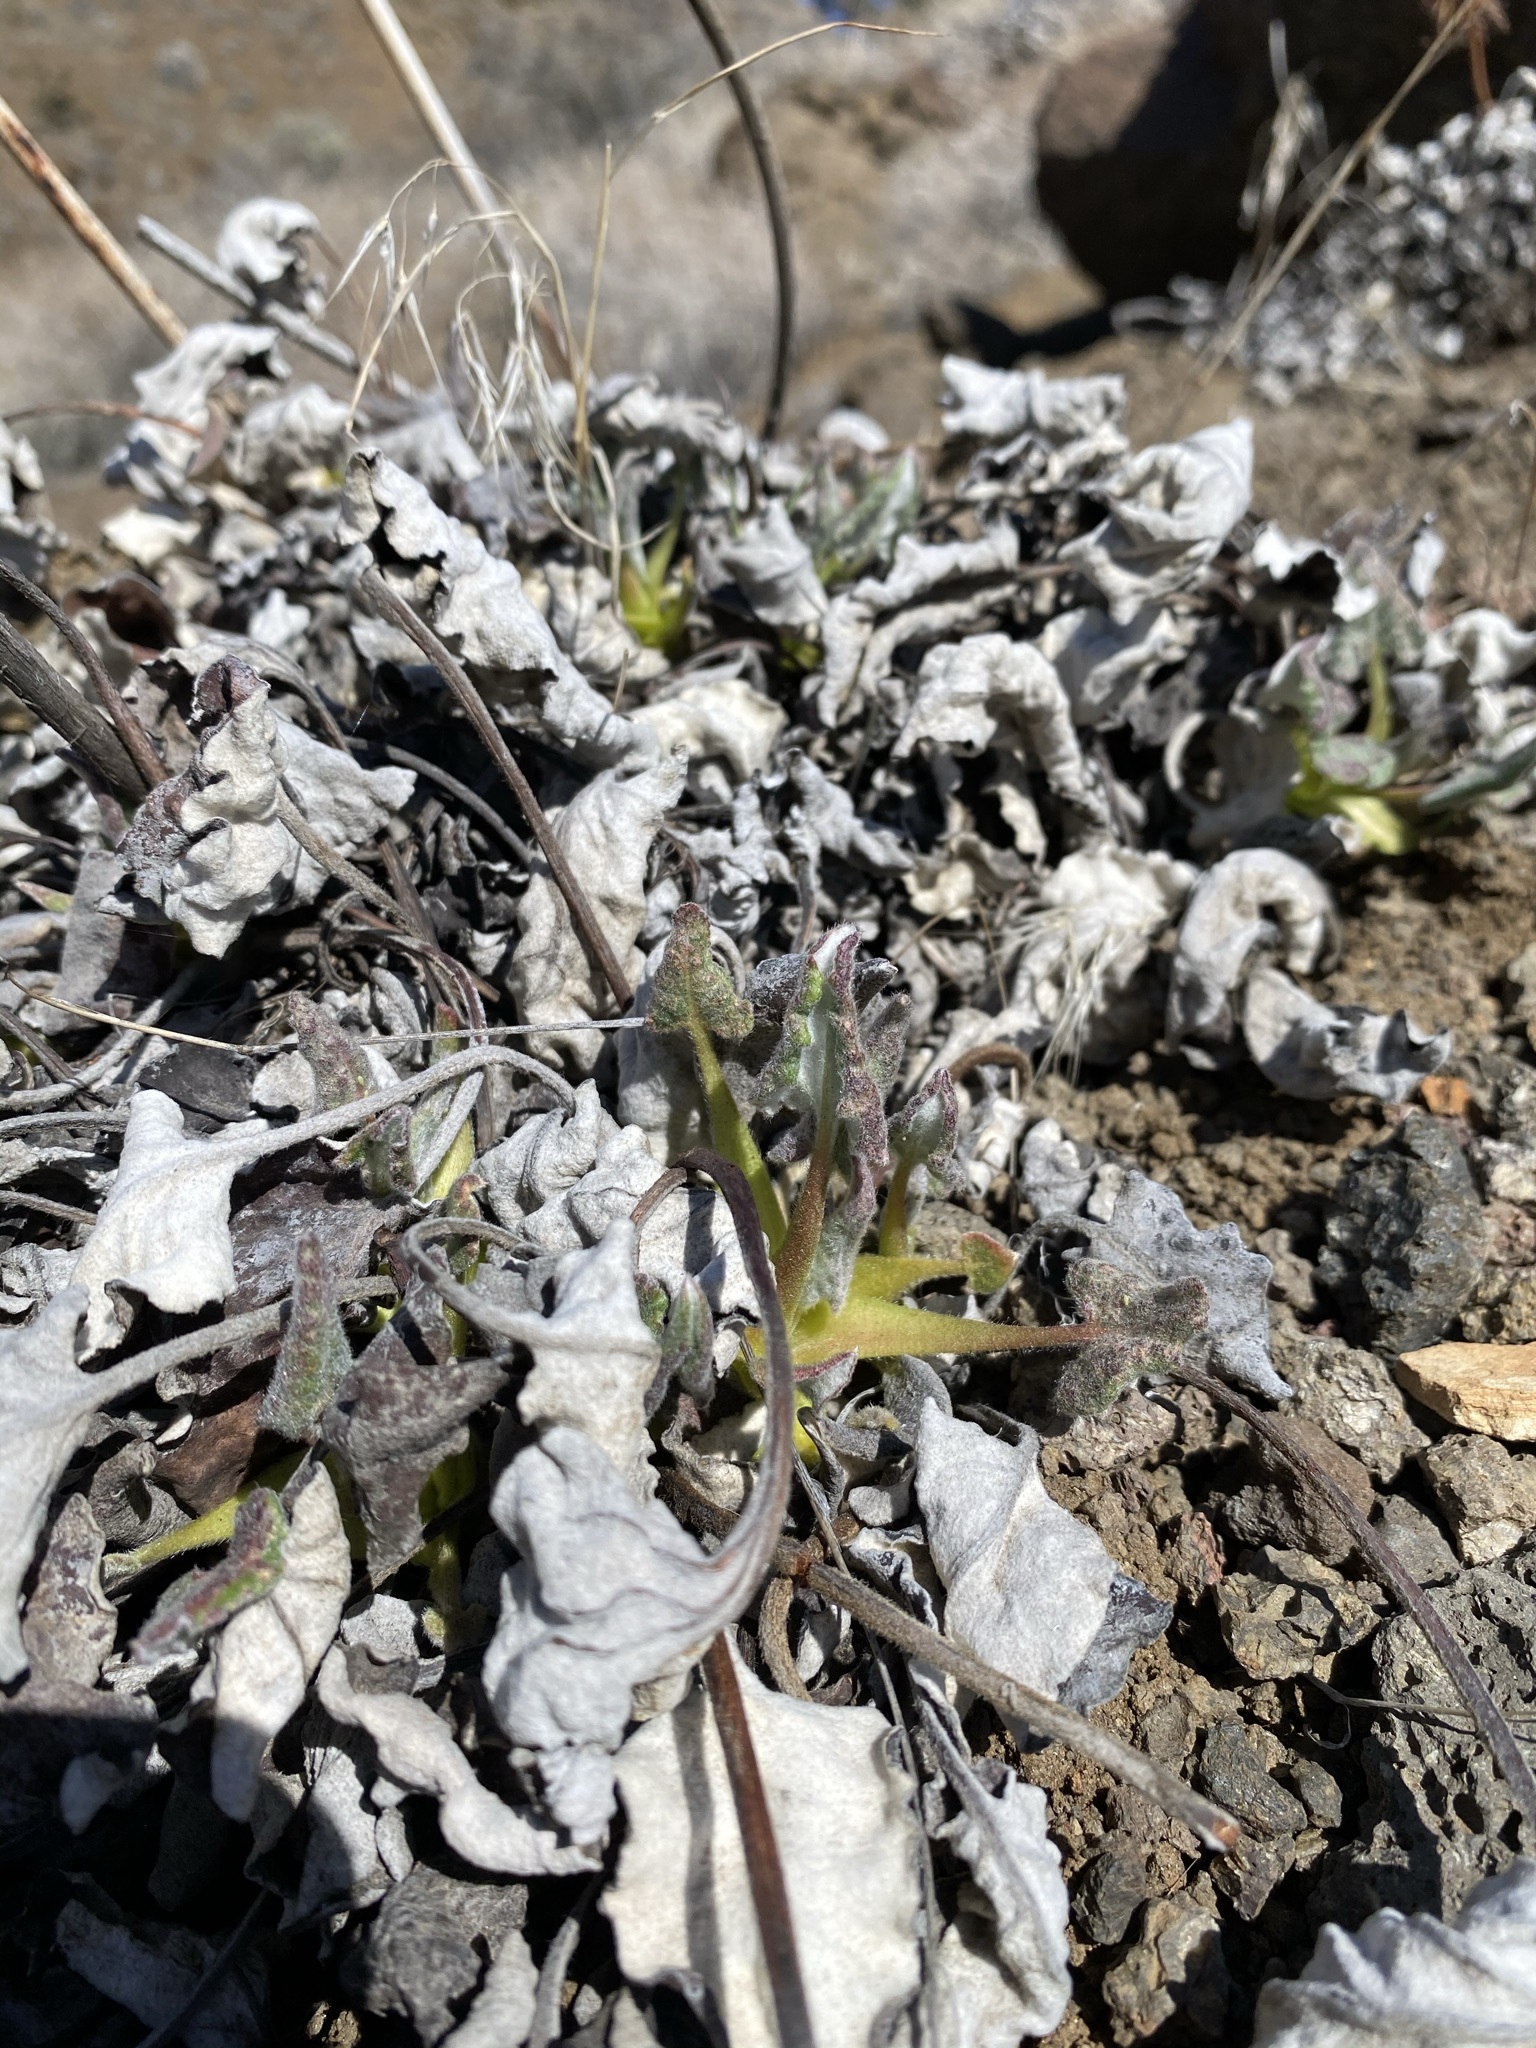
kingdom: Plantae
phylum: Tracheophyta
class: Magnoliopsida
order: Caryophyllales
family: Polygonaceae
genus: Eriogonum
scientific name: Eriogonum compositum
